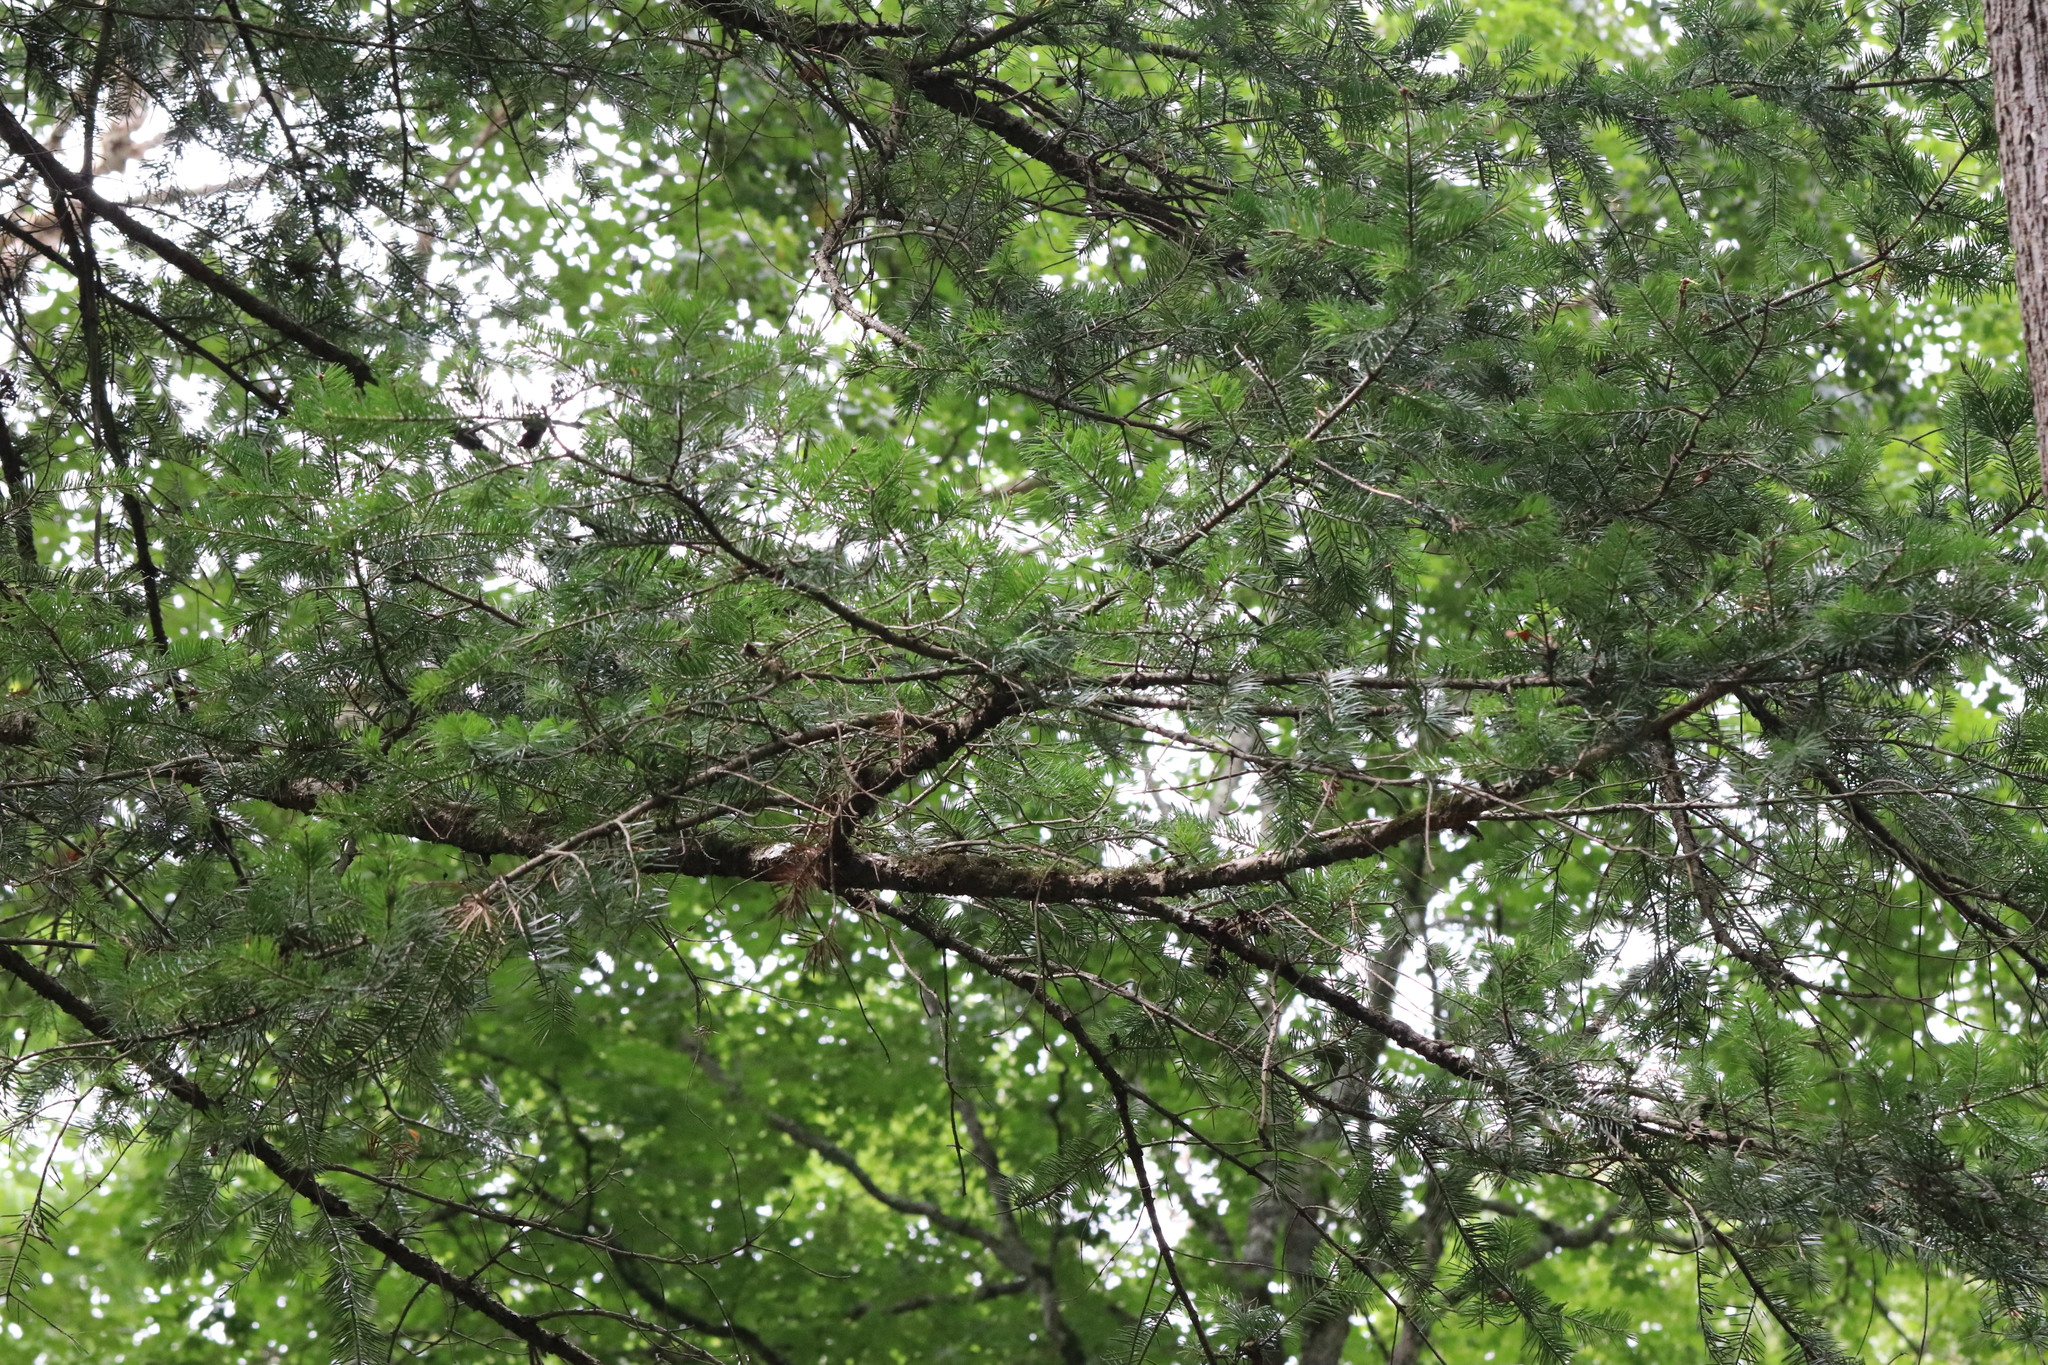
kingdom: Plantae
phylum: Tracheophyta
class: Pinopsida
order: Pinales
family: Pinaceae
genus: Abies
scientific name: Abies holophylla
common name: Manchurian fir
